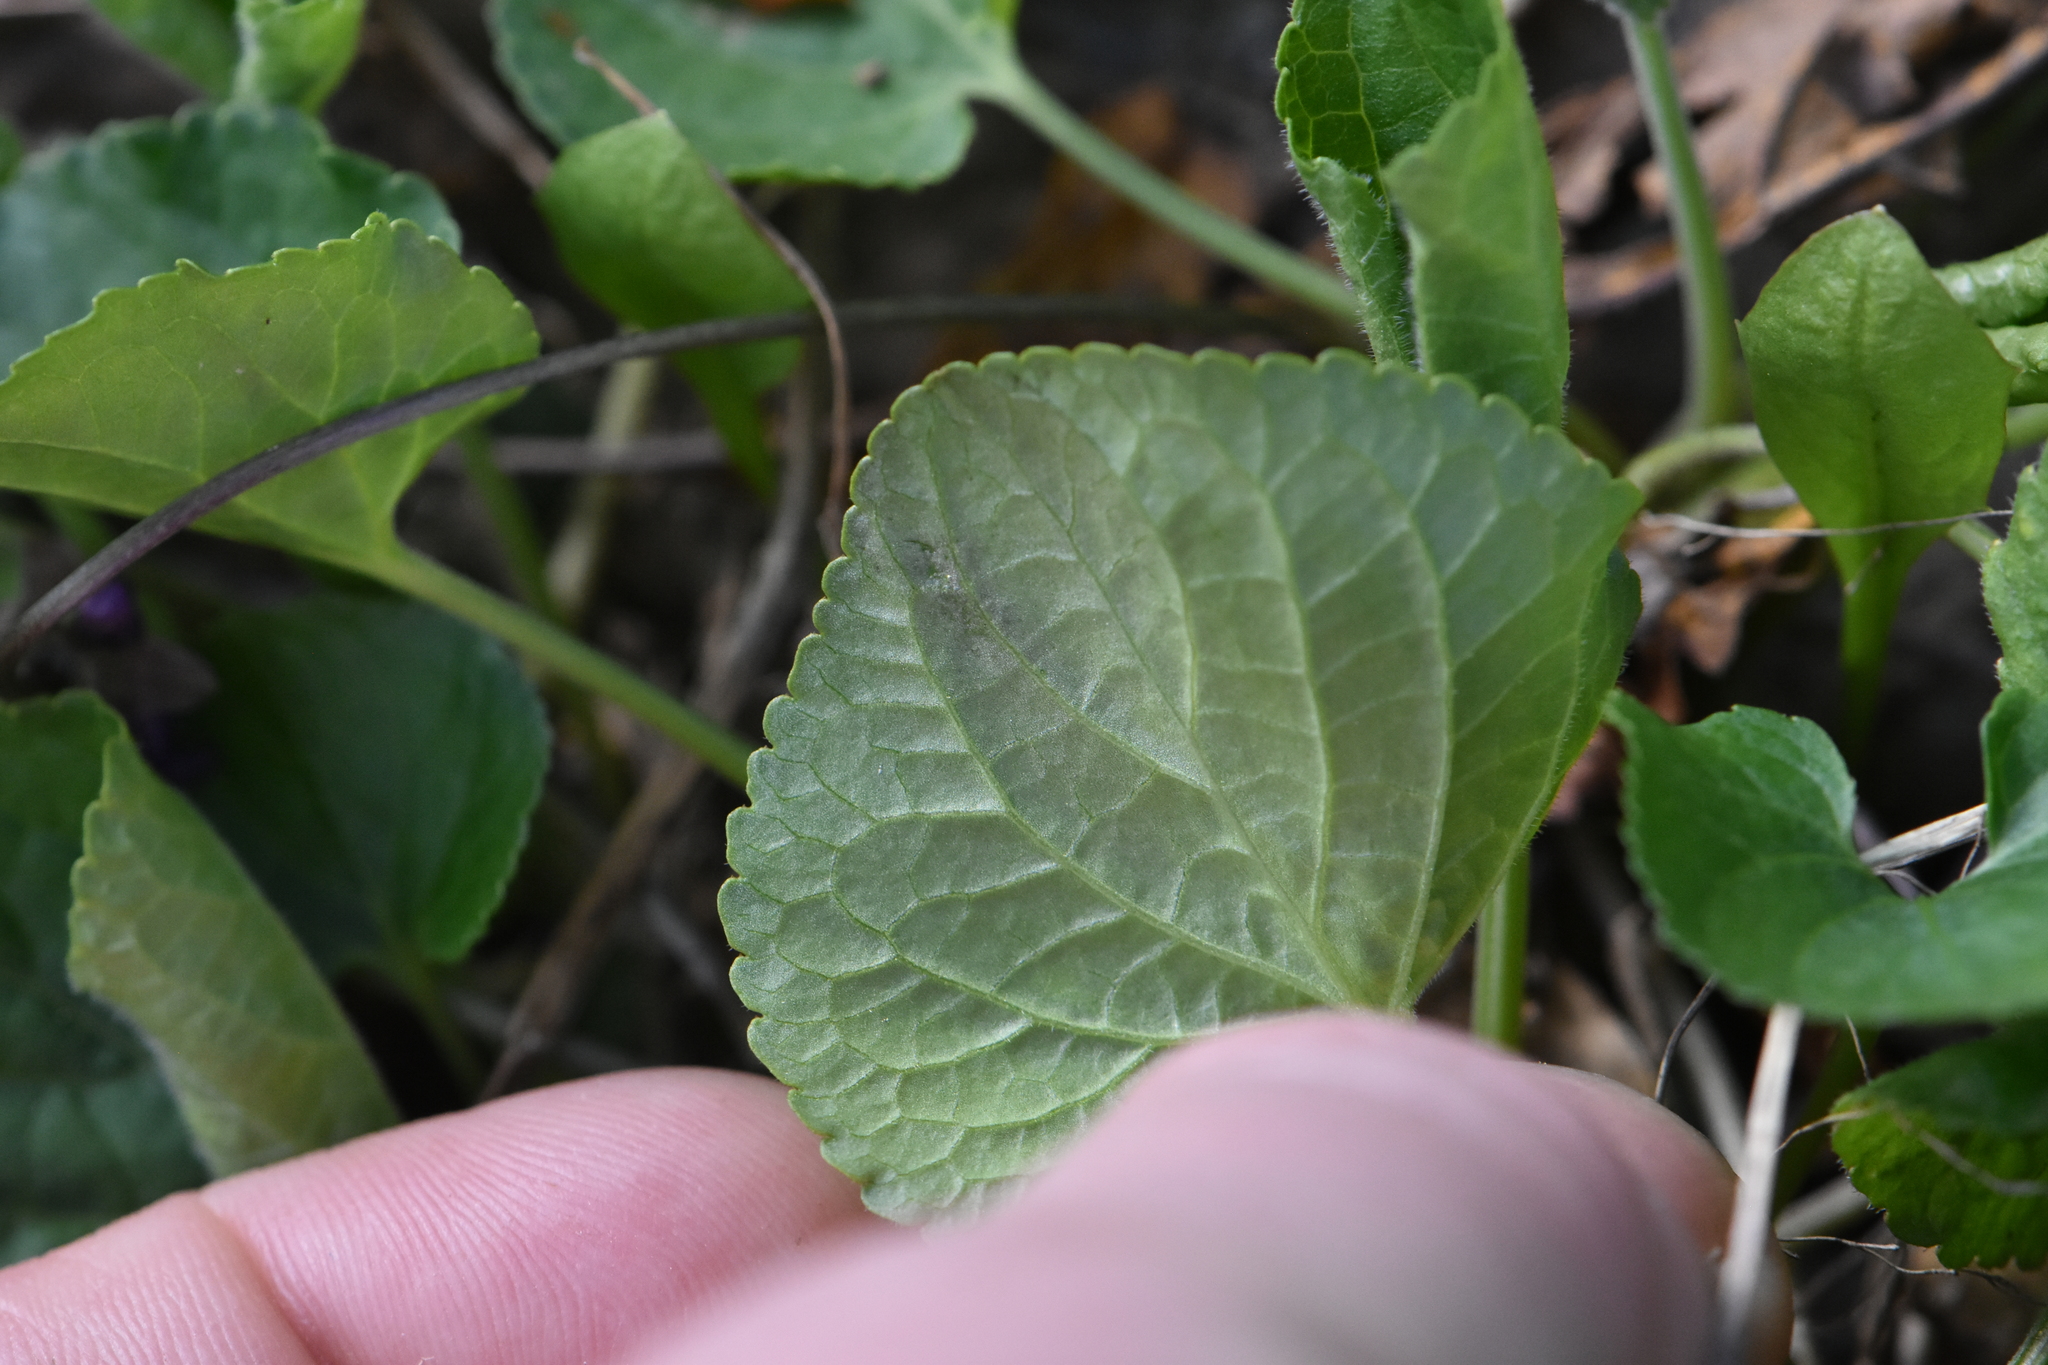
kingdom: Plantae
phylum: Tracheophyta
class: Magnoliopsida
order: Malpighiales
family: Violaceae
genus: Viola
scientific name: Viola odorata
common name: Sweet violet
